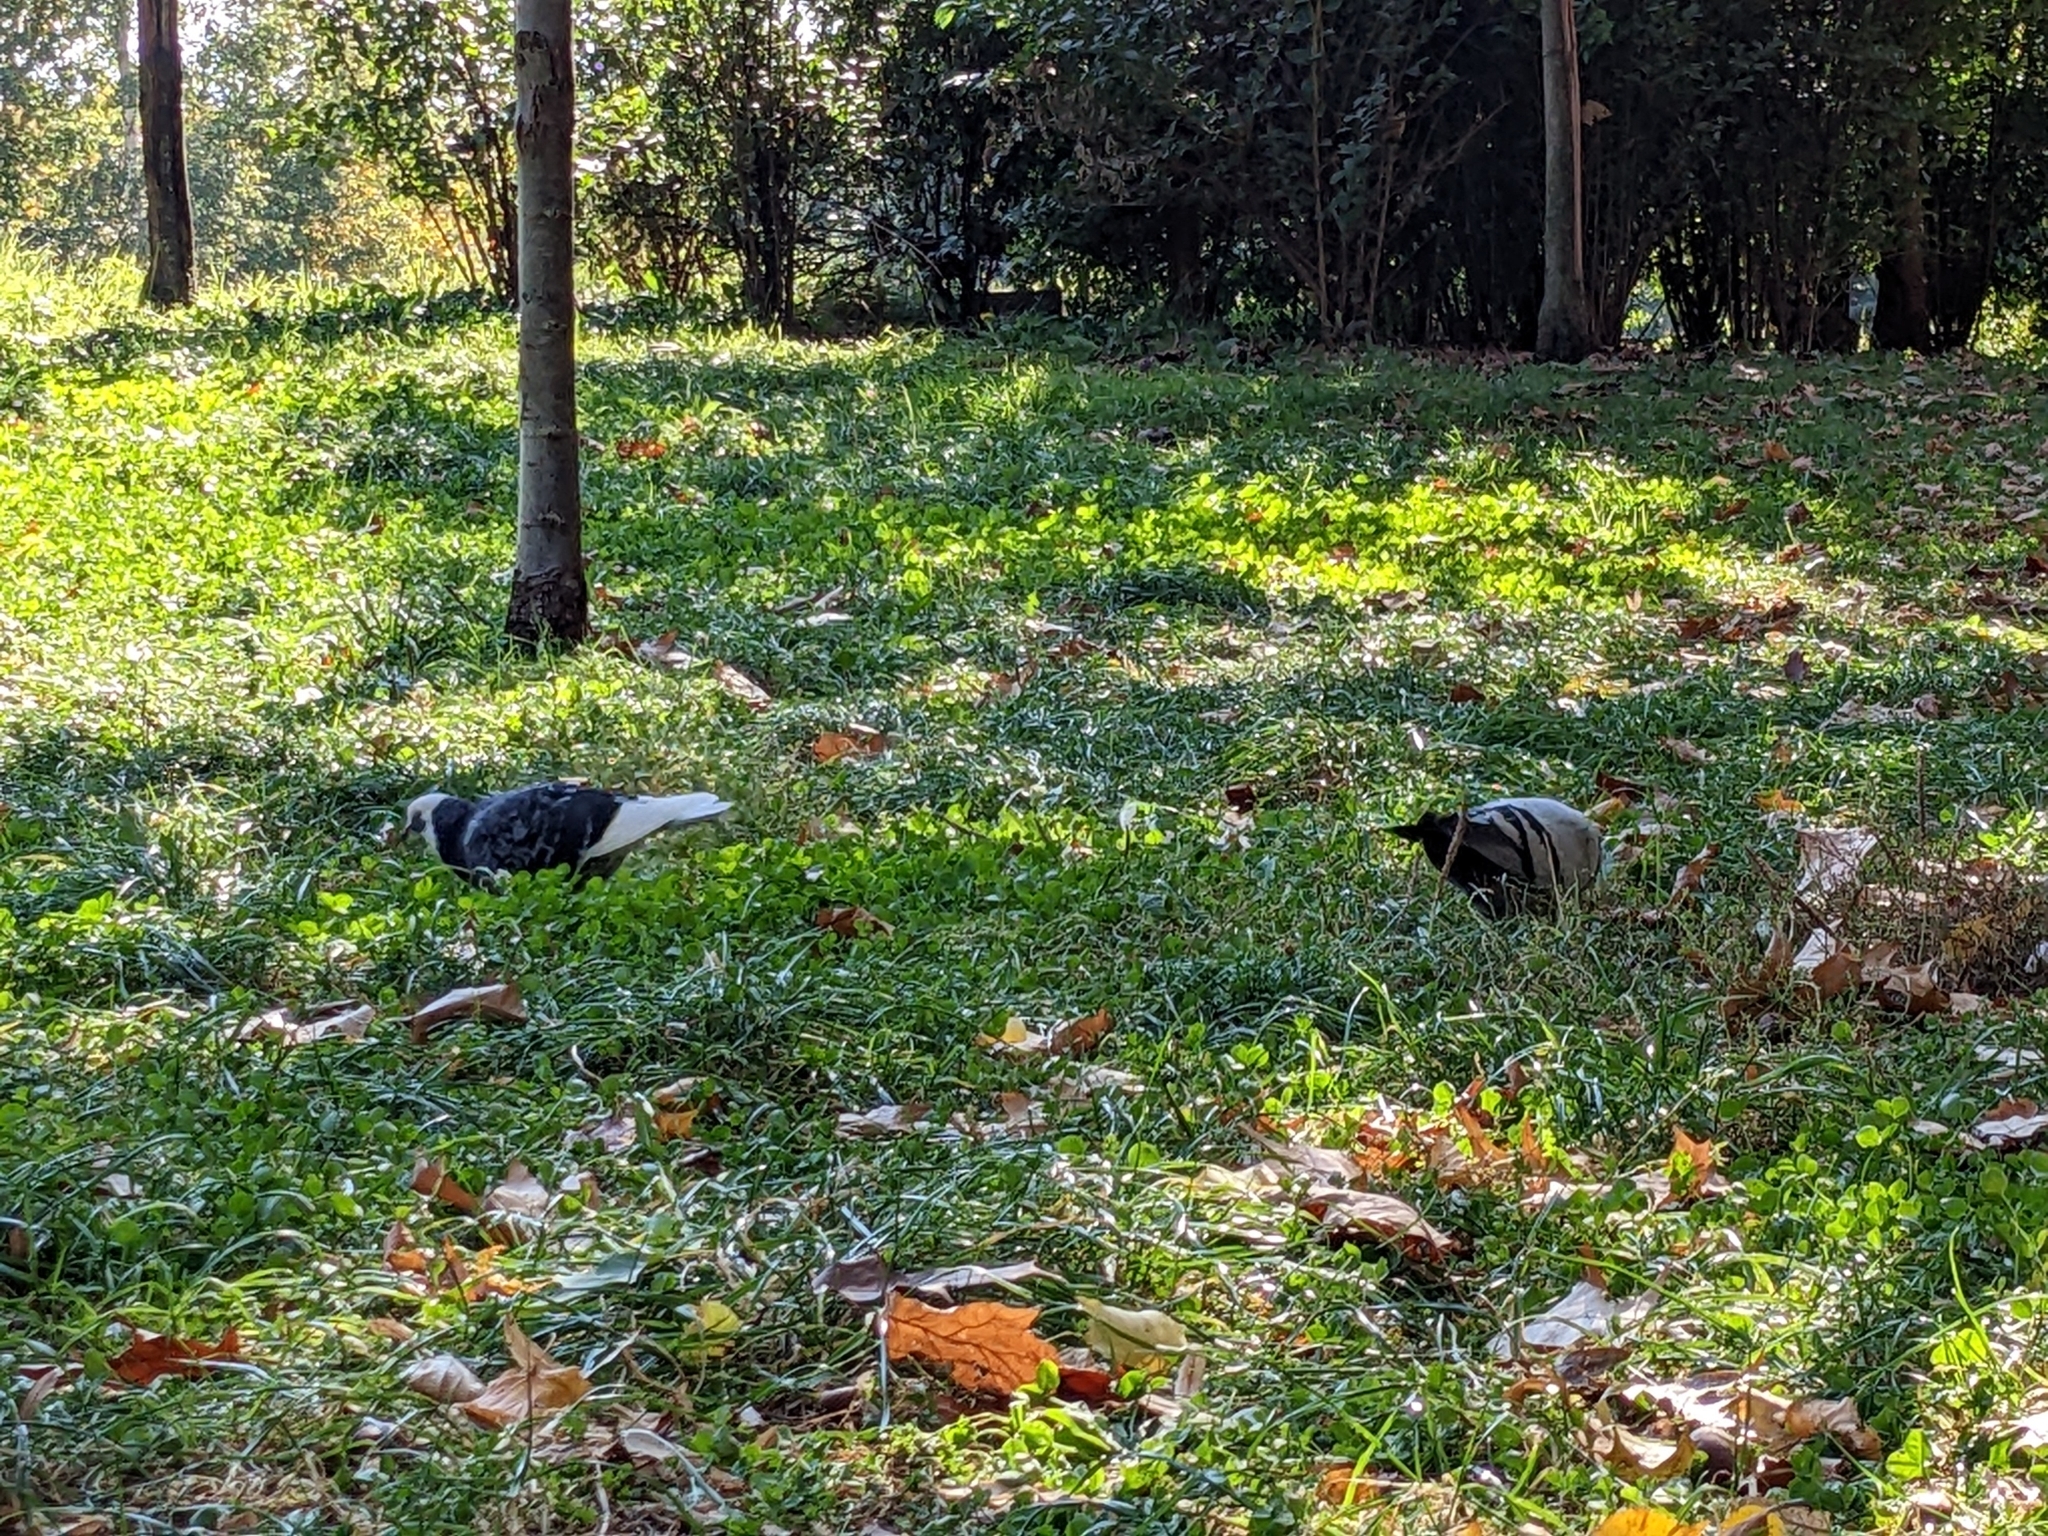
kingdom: Animalia
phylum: Chordata
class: Aves
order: Columbiformes
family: Columbidae
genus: Columba
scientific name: Columba livia
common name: Rock pigeon
